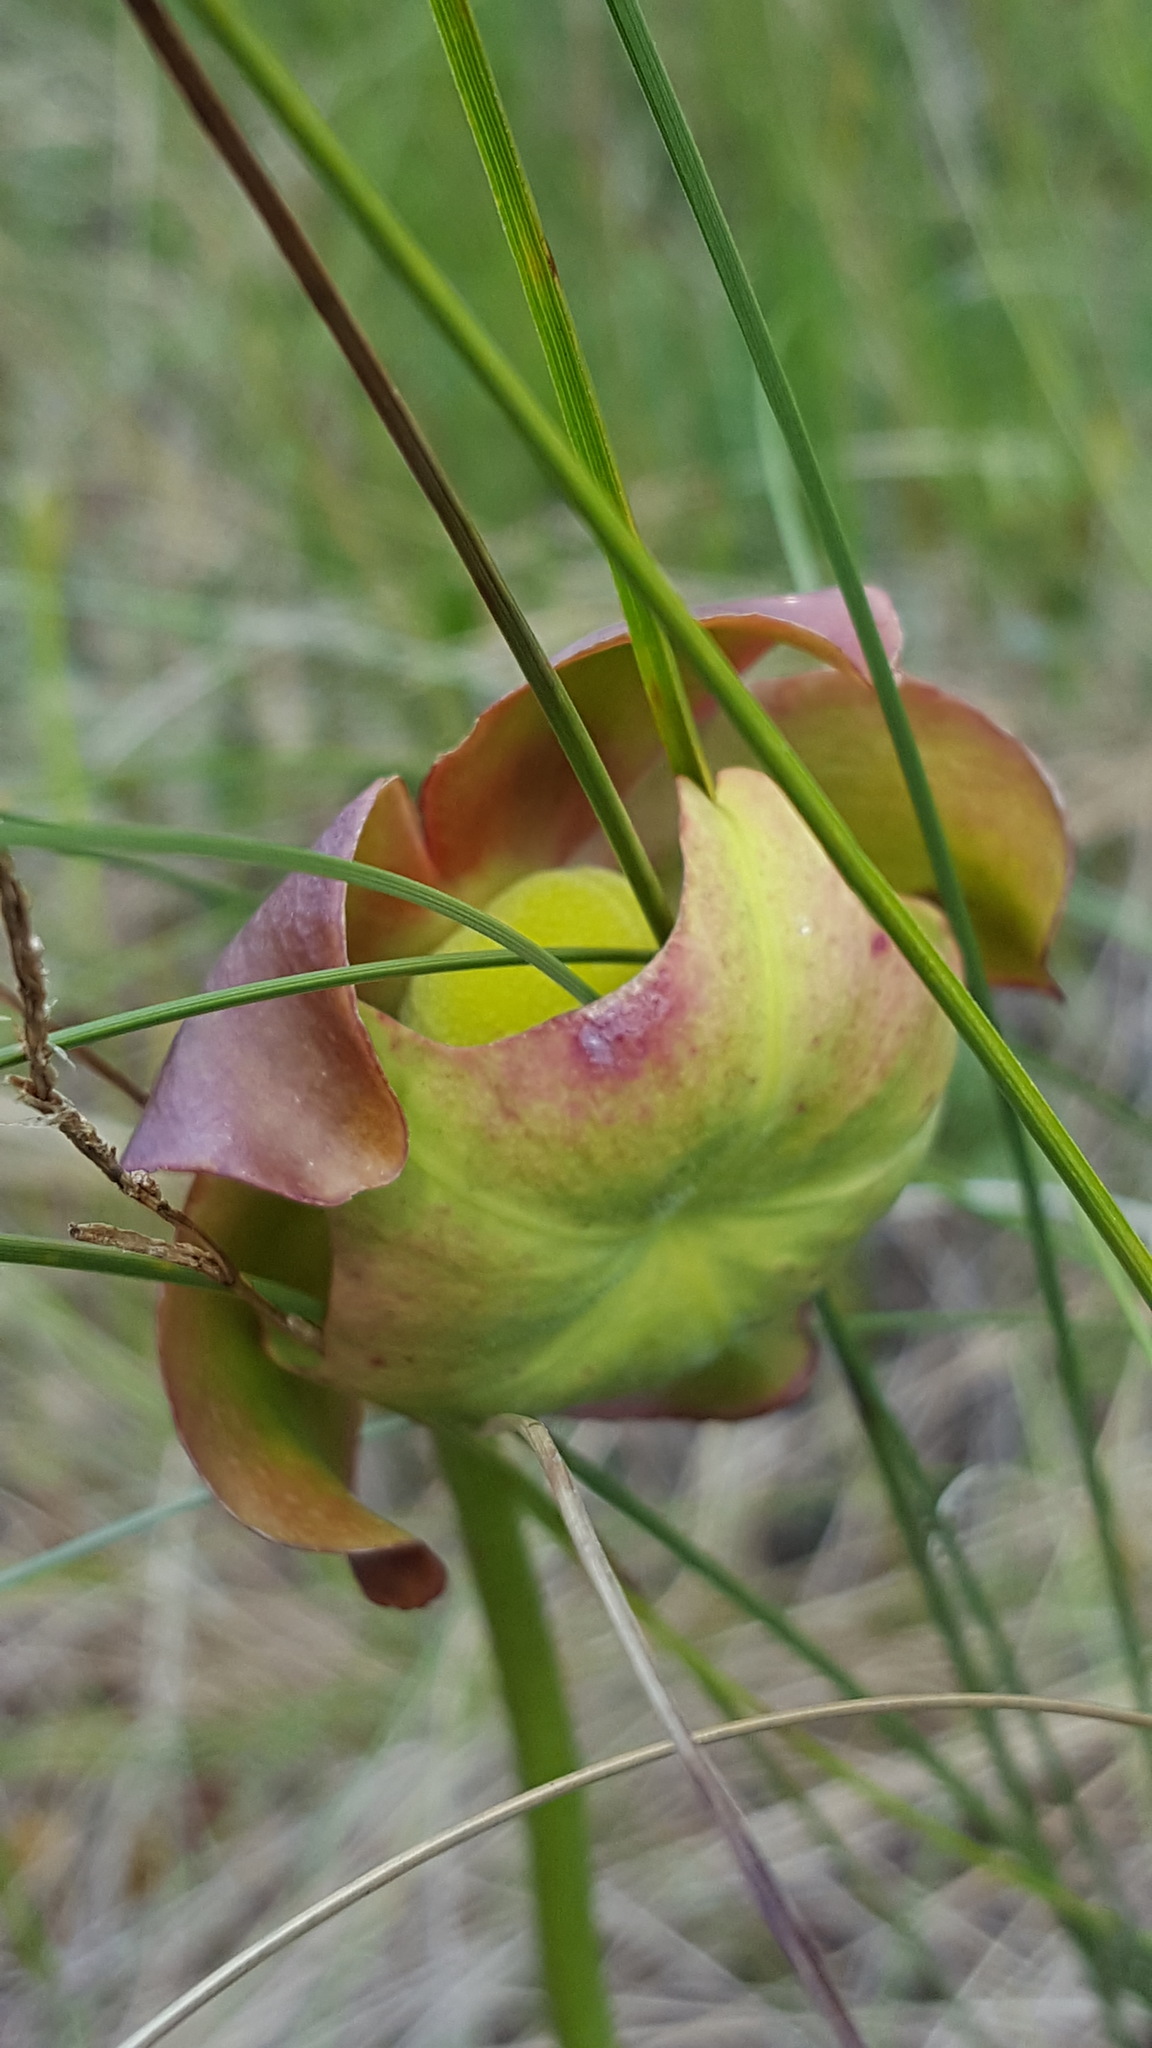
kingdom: Plantae
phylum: Tracheophyta
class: Magnoliopsida
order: Ericales
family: Sarraceniaceae
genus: Sarracenia
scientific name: Sarracenia purpurea
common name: Pitcherplant
